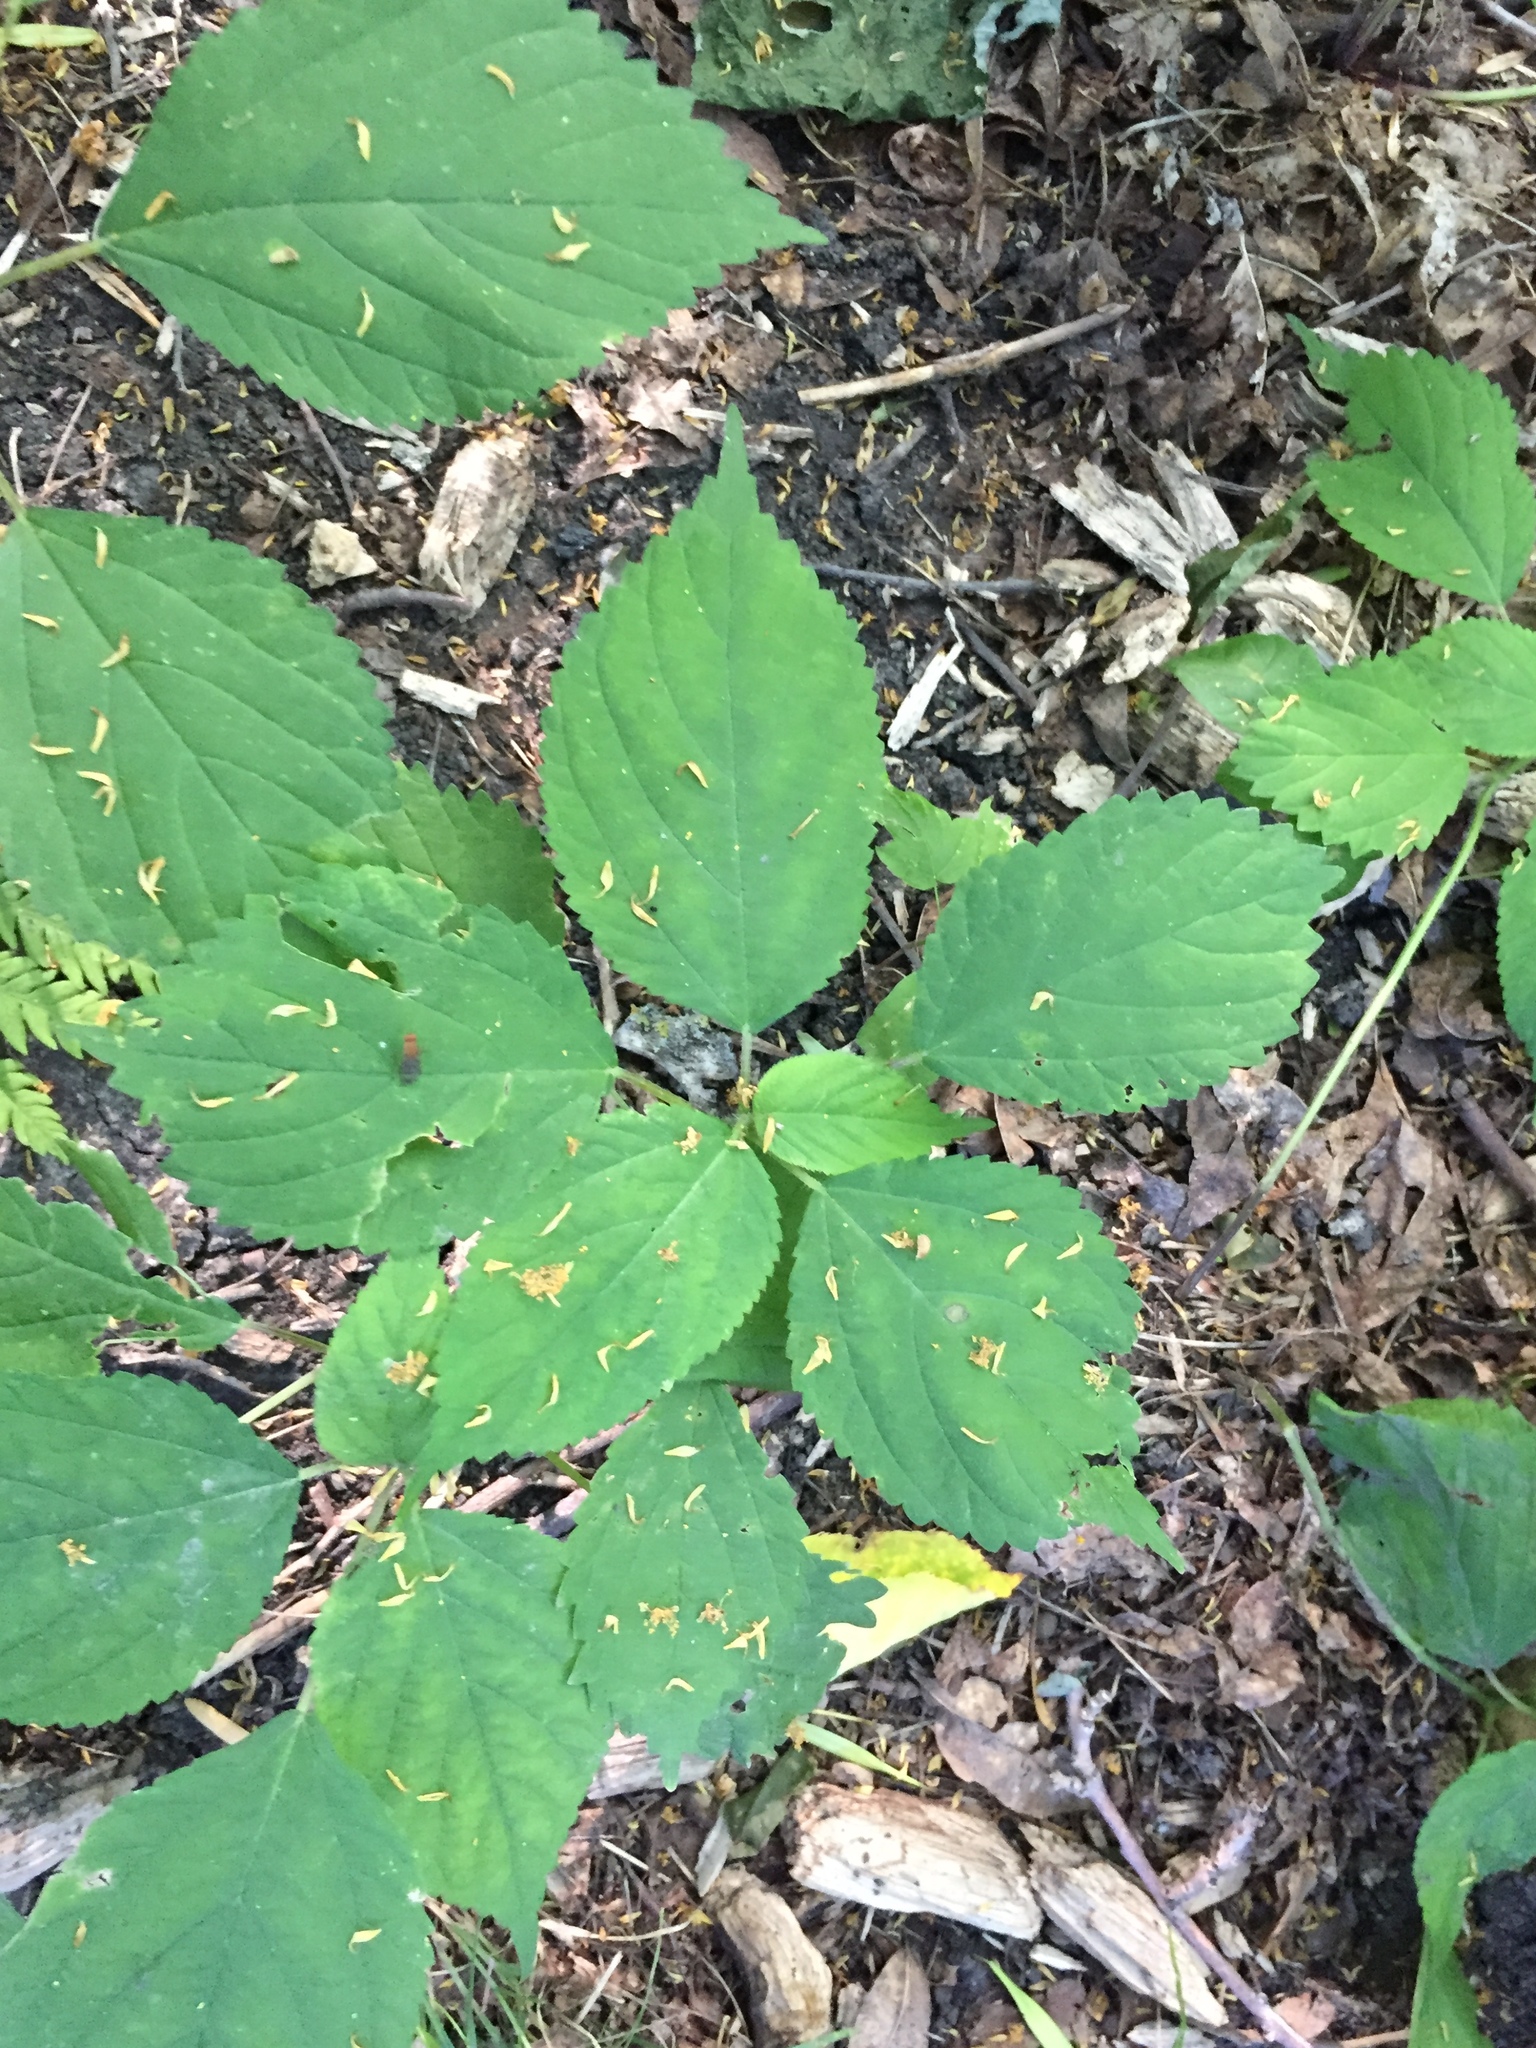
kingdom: Plantae
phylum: Tracheophyta
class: Magnoliopsida
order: Rosales
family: Urticaceae
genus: Laportea
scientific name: Laportea canadensis
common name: Canada nettle
